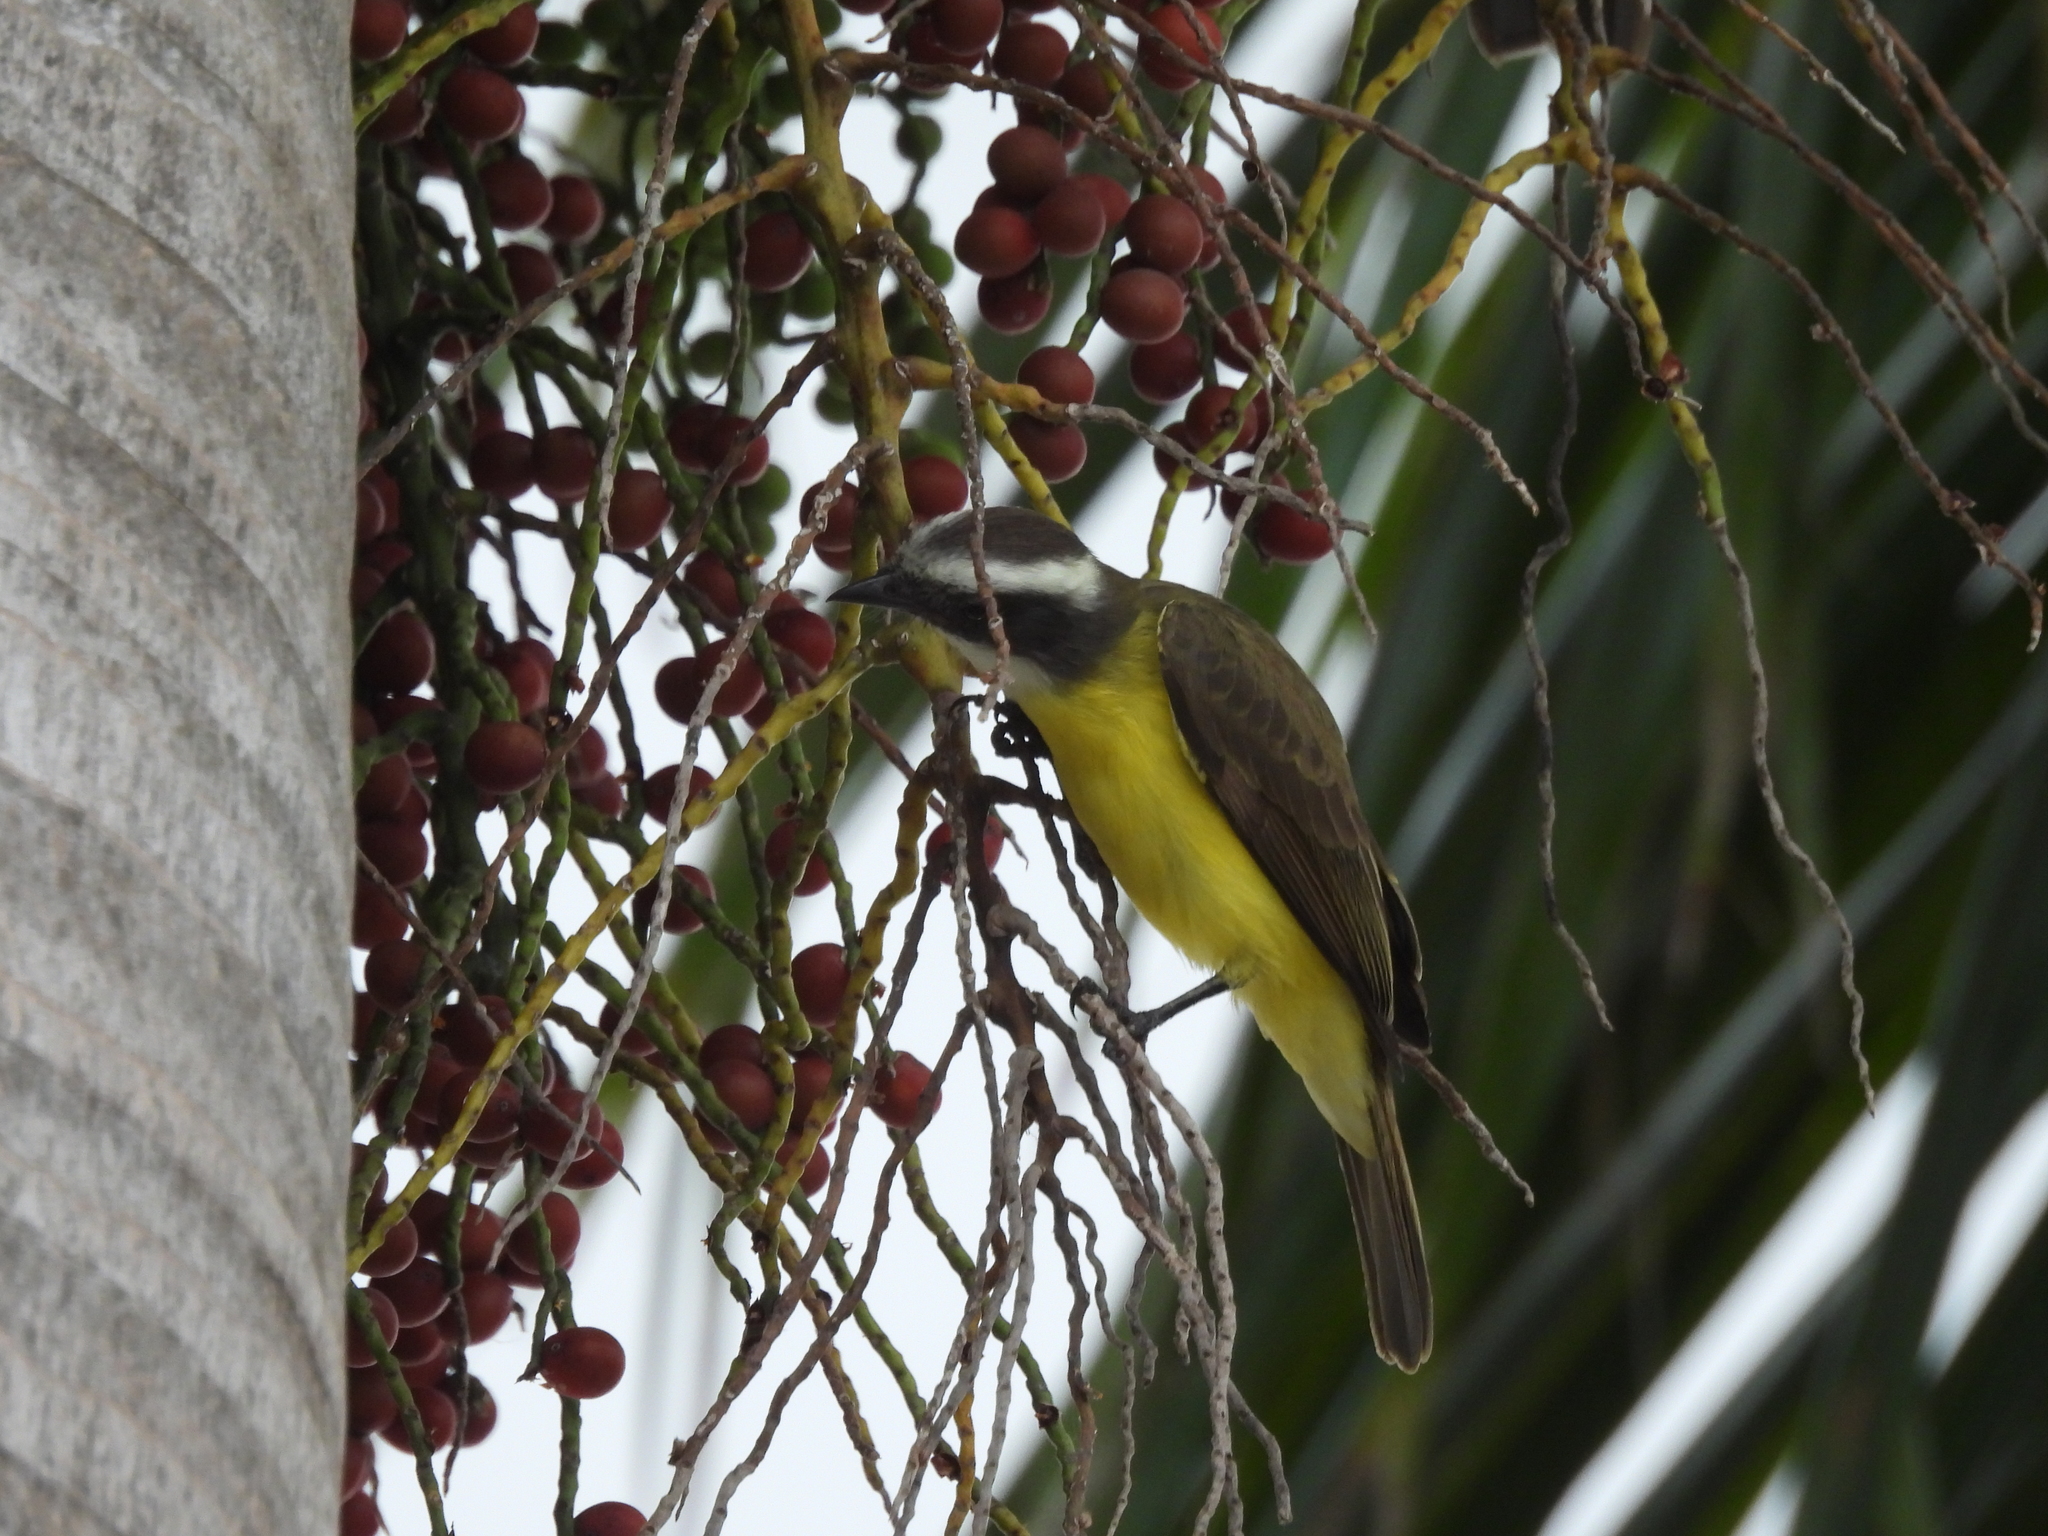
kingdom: Animalia
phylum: Chordata
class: Aves
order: Passeriformes
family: Tyrannidae
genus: Myiozetetes
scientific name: Myiozetetes similis
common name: Social flycatcher
